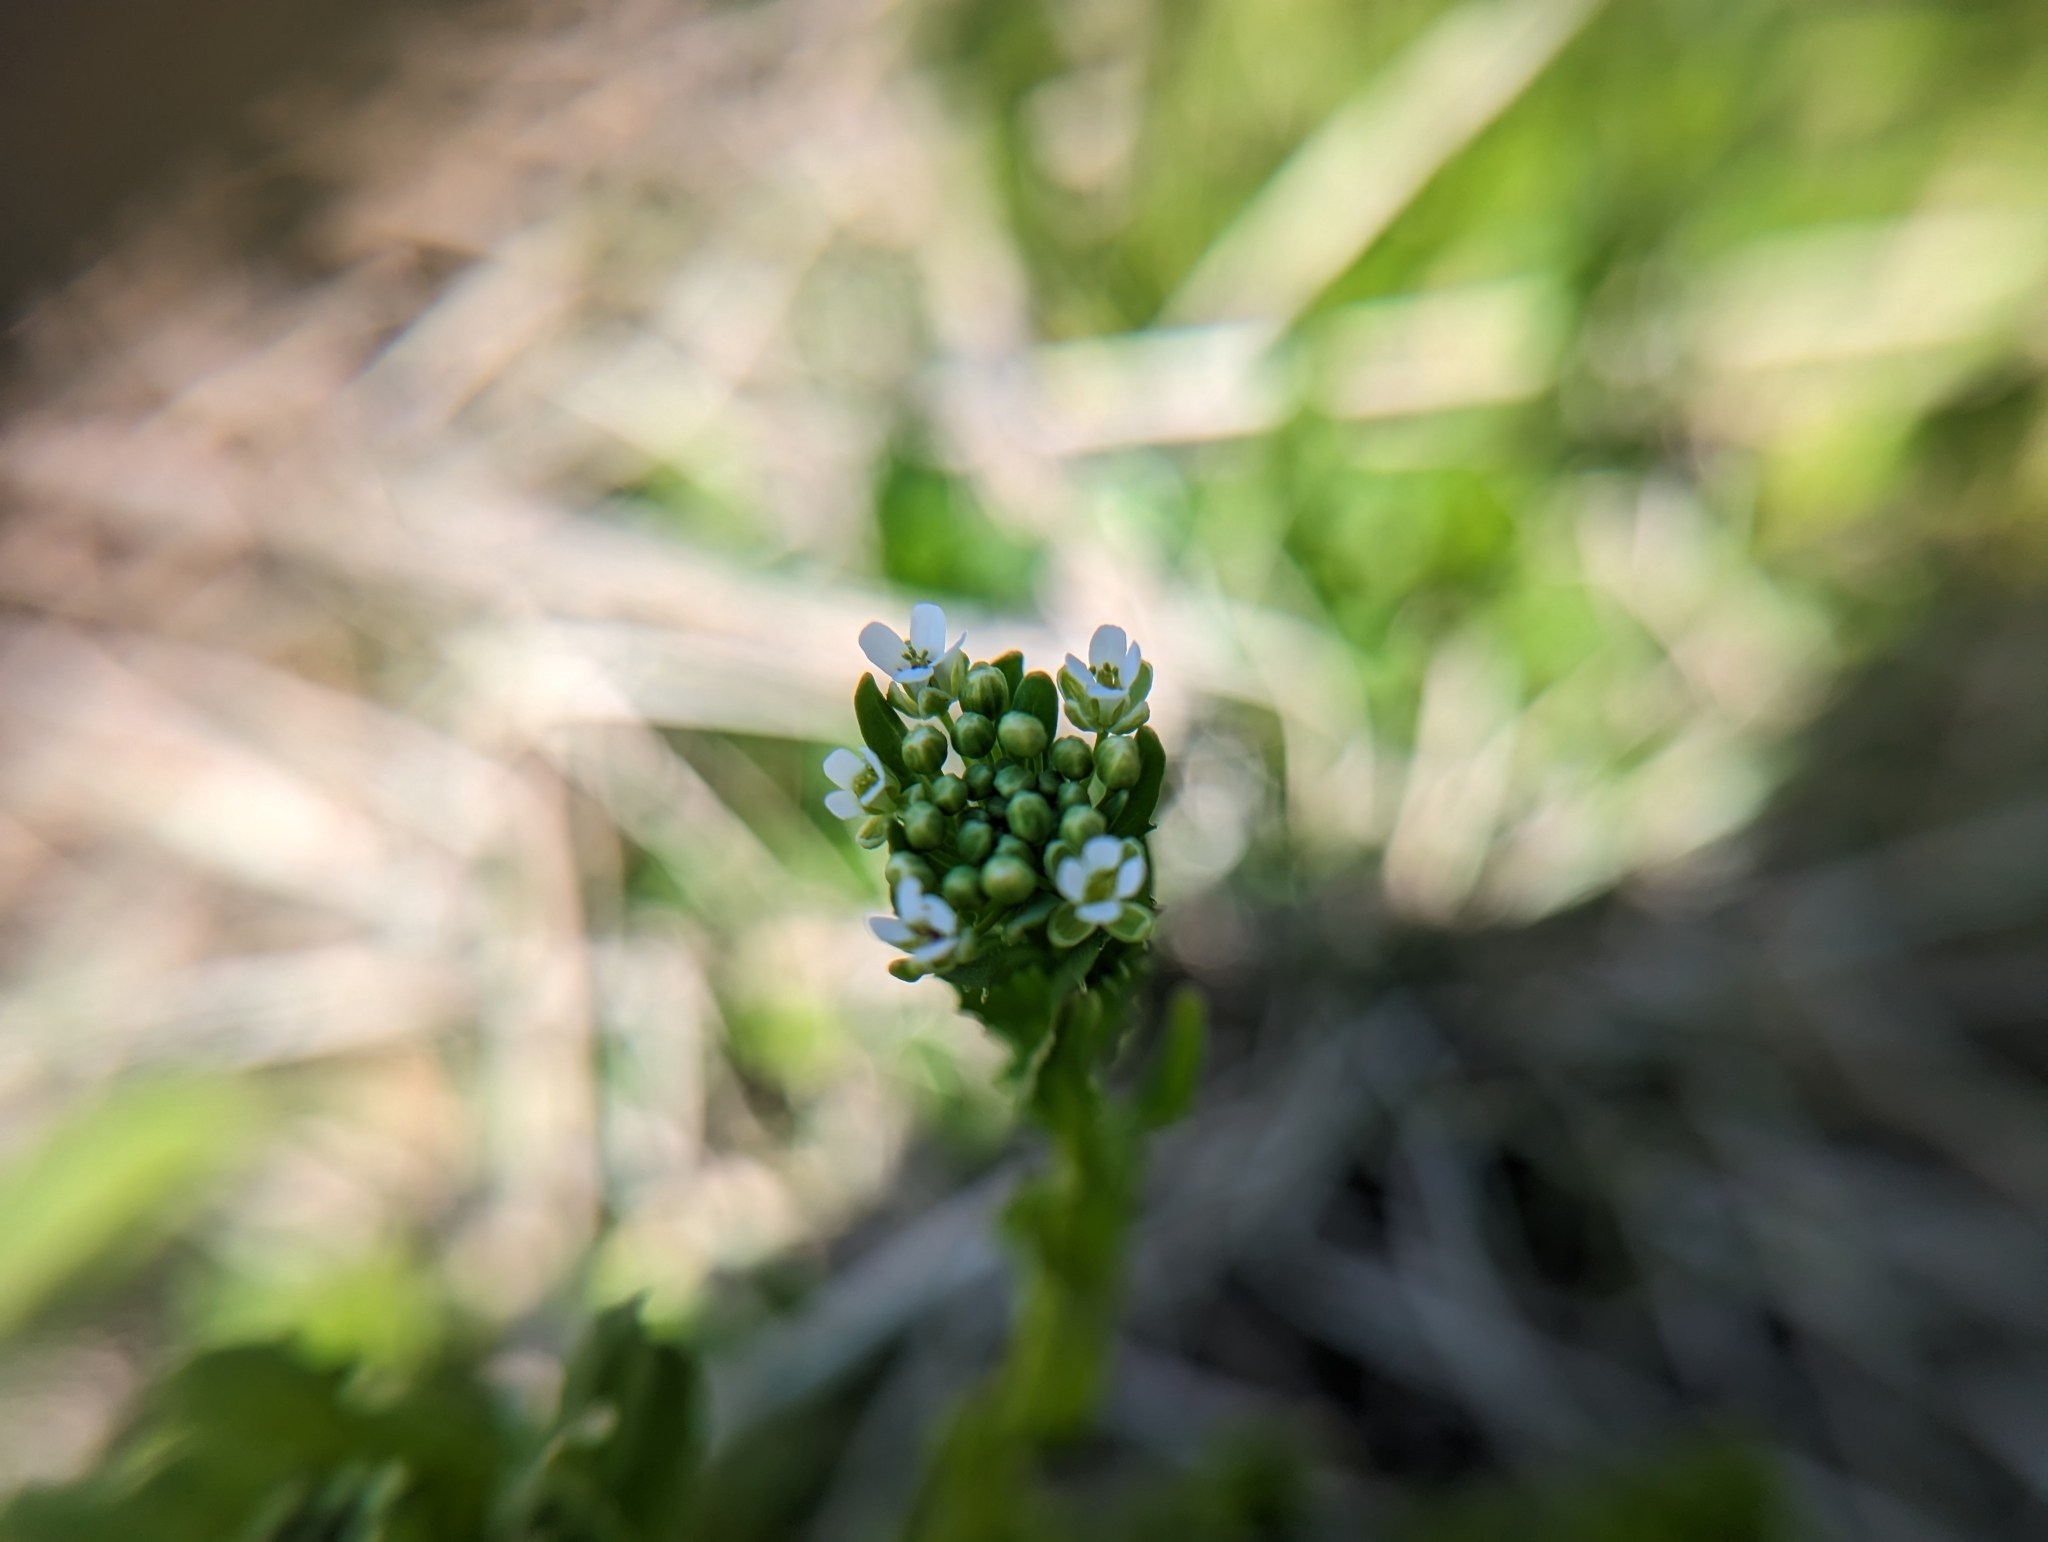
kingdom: Plantae
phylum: Tracheophyta
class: Magnoliopsida
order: Brassicales
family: Brassicaceae
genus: Thlaspi
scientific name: Thlaspi arvense
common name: Field pennycress
